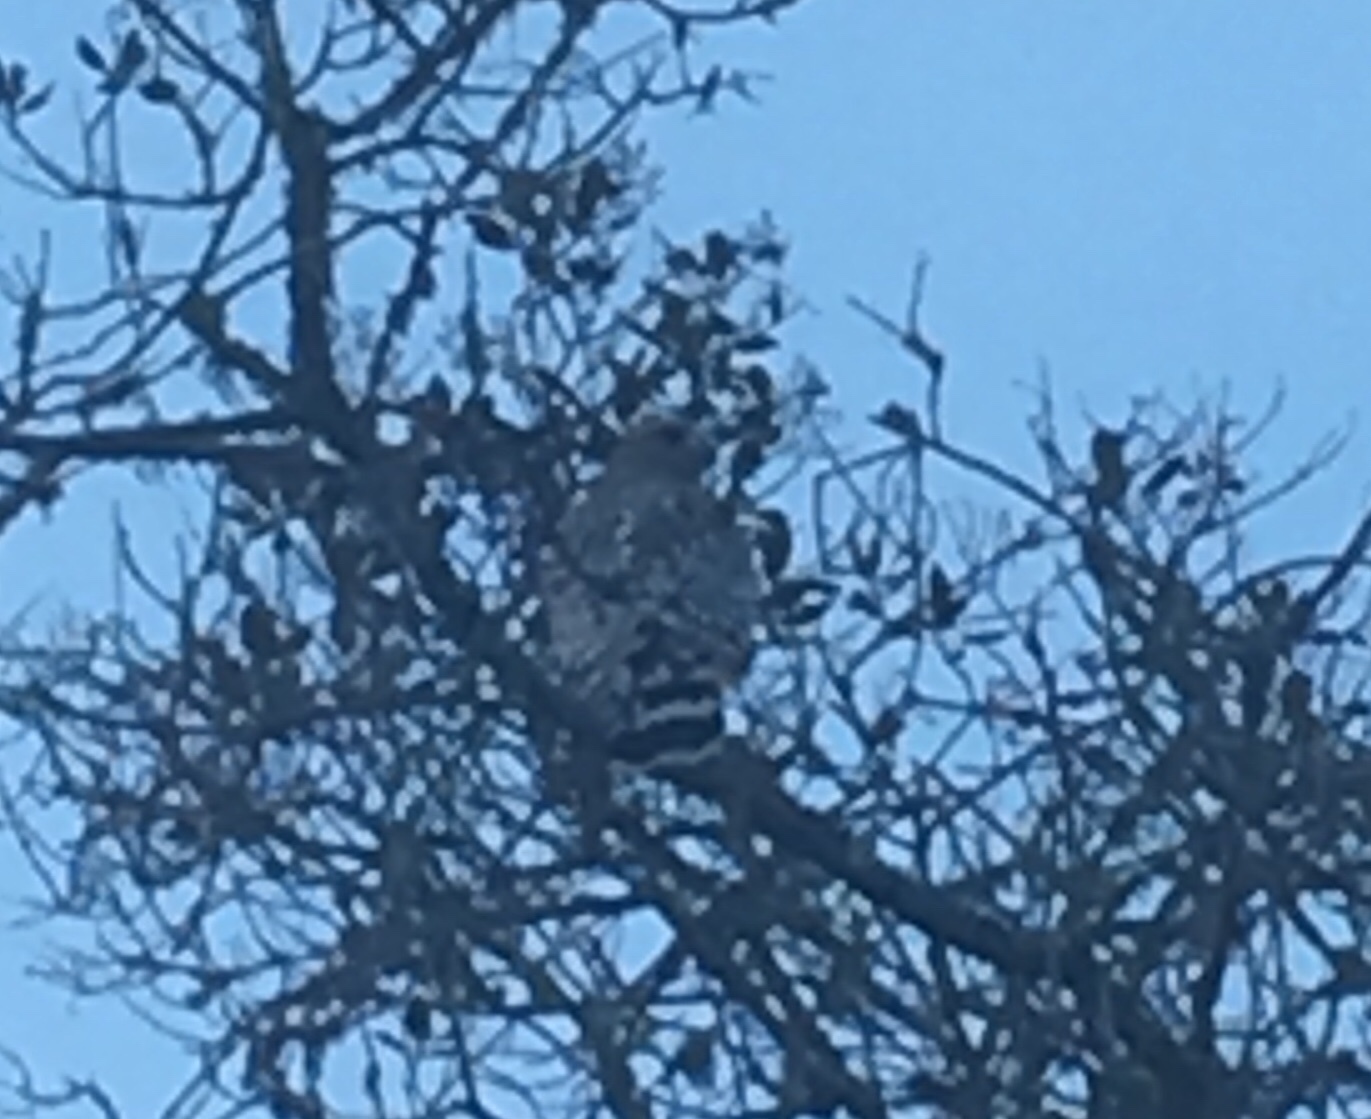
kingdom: Animalia
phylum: Chordata
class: Aves
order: Accipitriformes
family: Accipitridae
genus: Buteo
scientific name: Buteo lineatus
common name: Red-shouldered hawk
